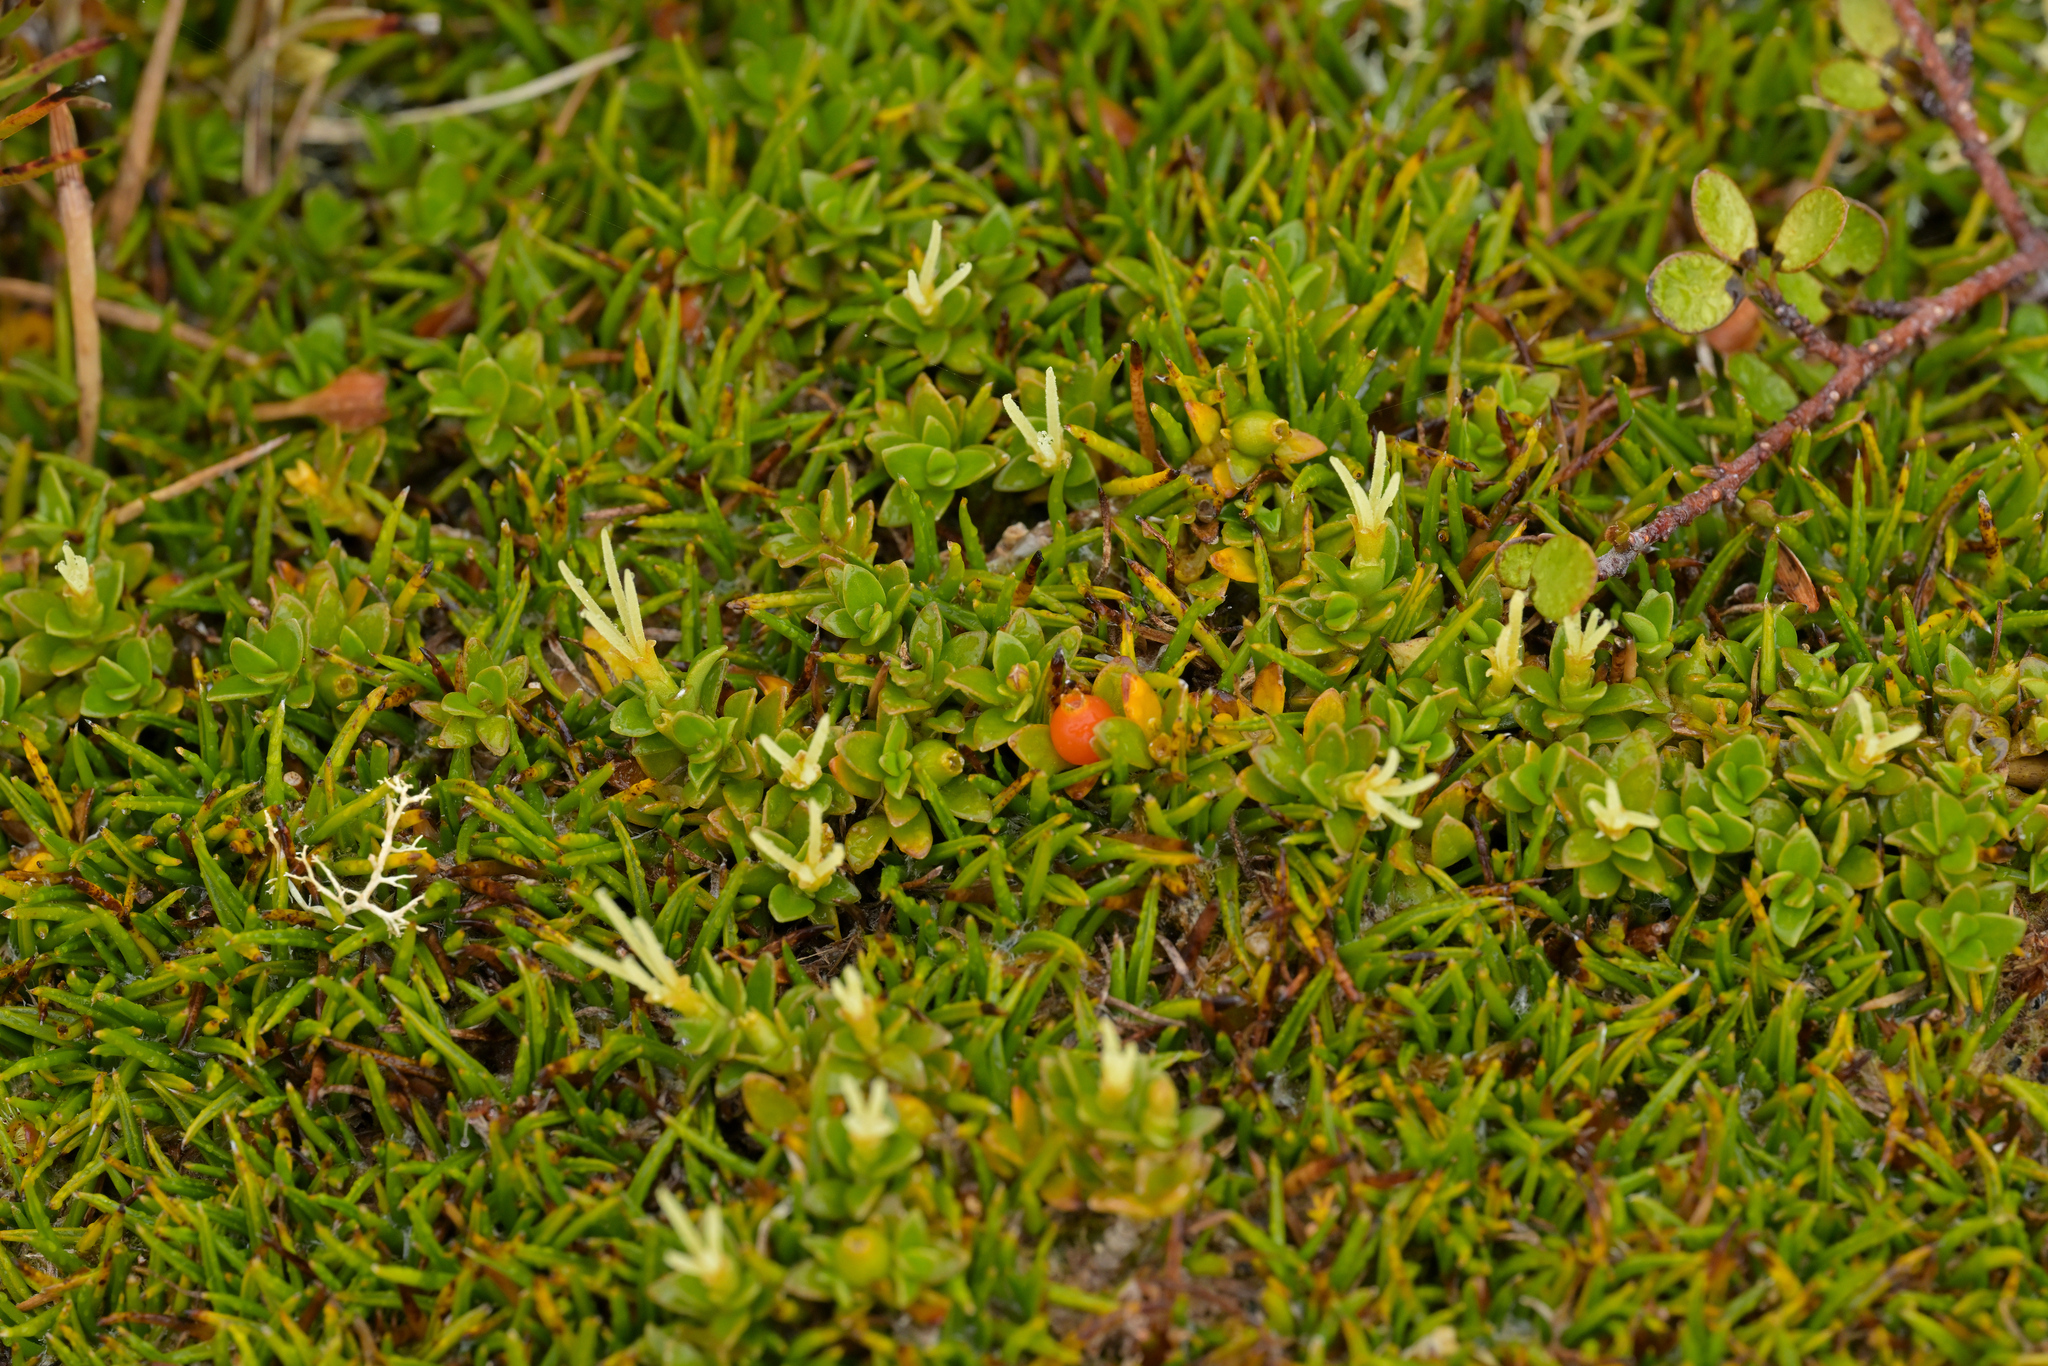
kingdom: Plantae
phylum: Tracheophyta
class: Magnoliopsida
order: Gentianales
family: Rubiaceae
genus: Coprosma
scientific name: Coprosma perpusilla
